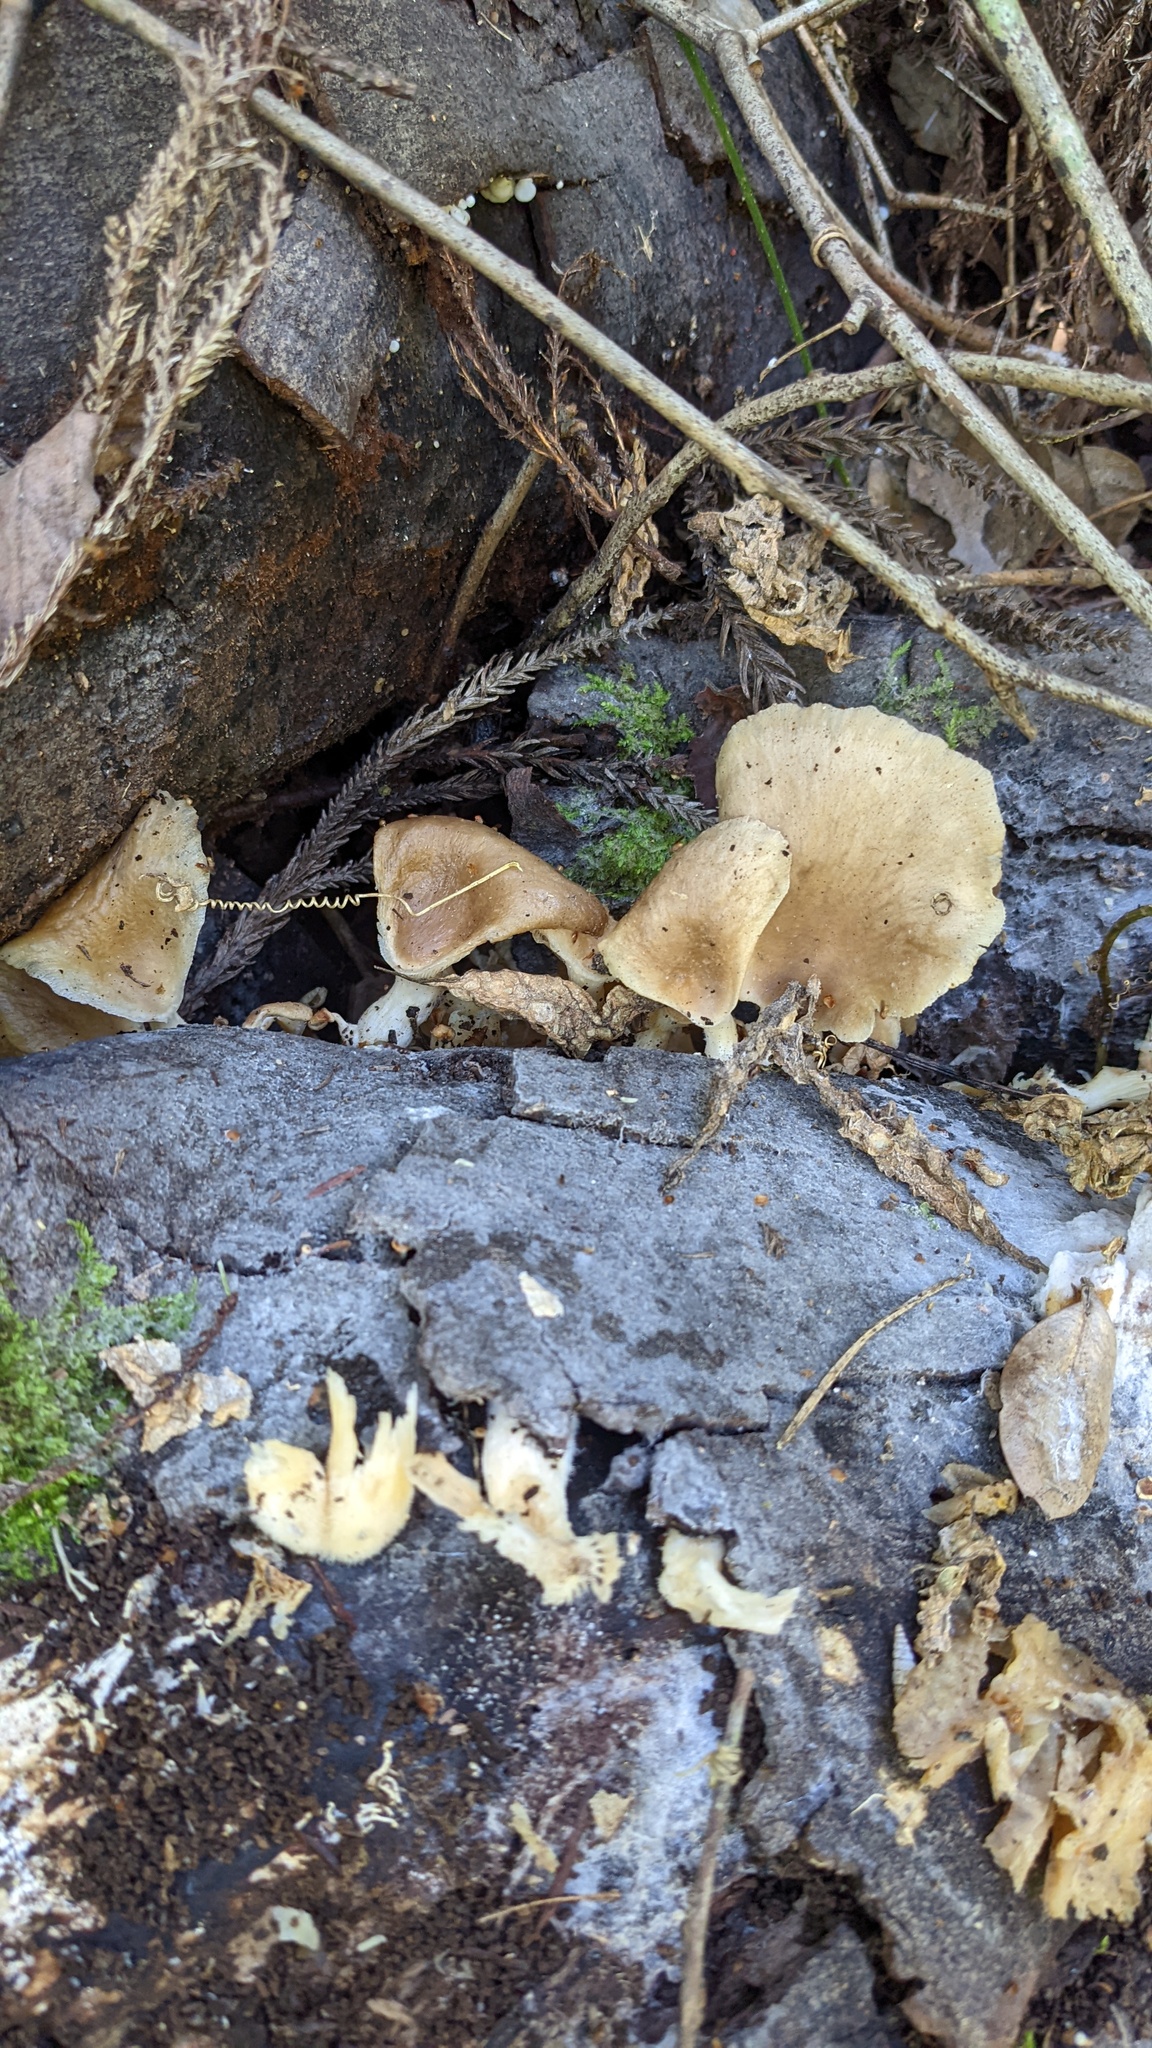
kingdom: Fungi
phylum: Basidiomycota
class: Agaricomycetes
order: Agaricales
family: Pleurotaceae
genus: Pleurotus
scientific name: Pleurotus pulmonarius
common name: Pale oyster
